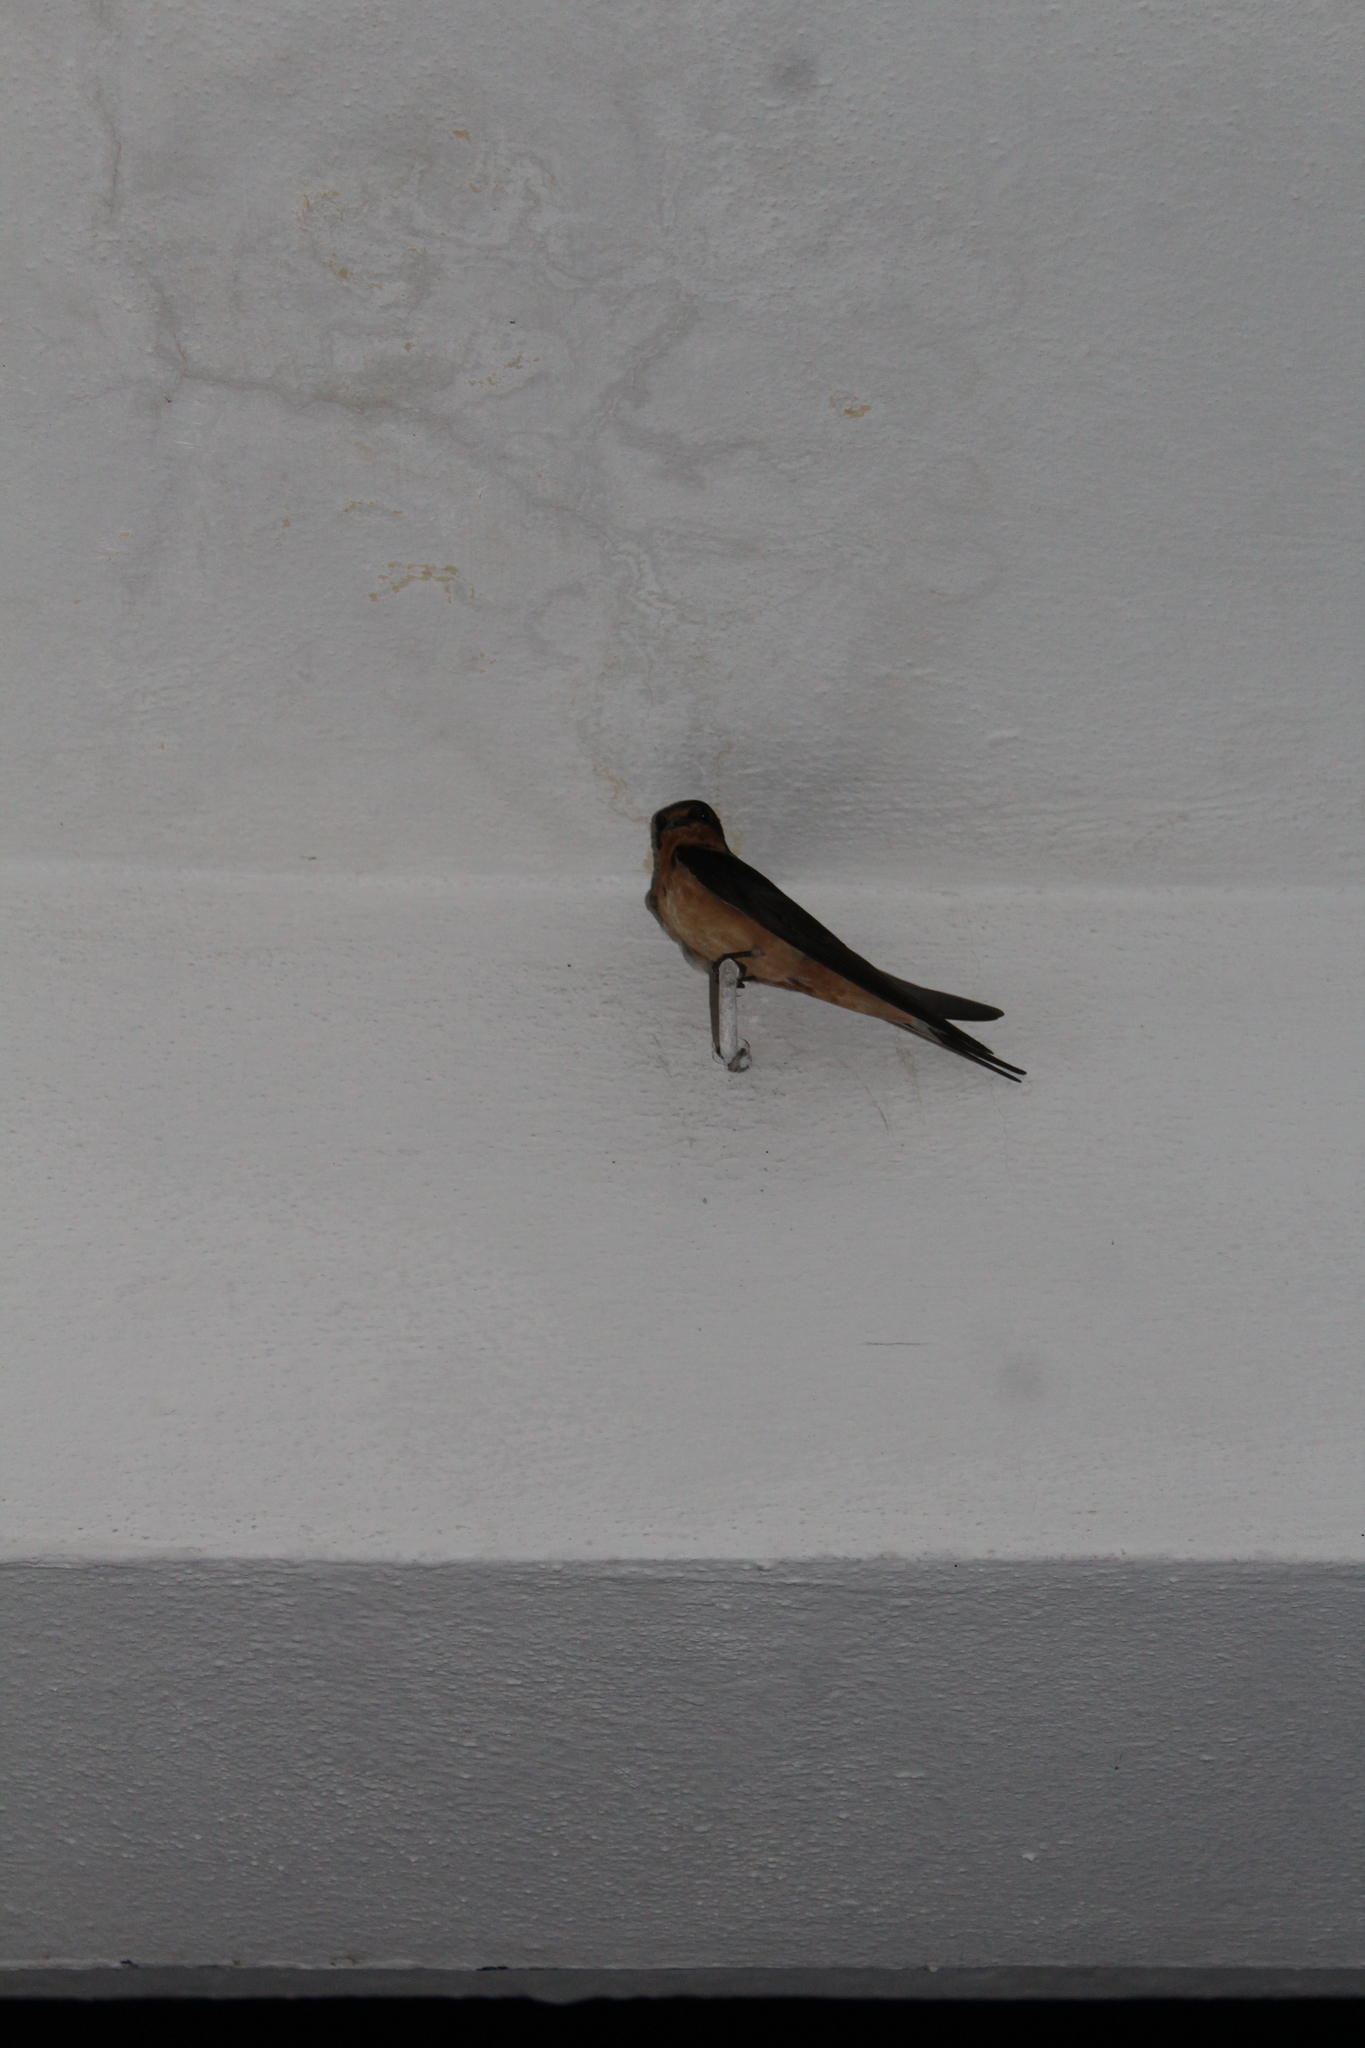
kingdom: Animalia
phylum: Chordata
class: Aves
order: Passeriformes
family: Hirundinidae
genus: Hirundo
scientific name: Hirundo rustica
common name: Barn swallow
